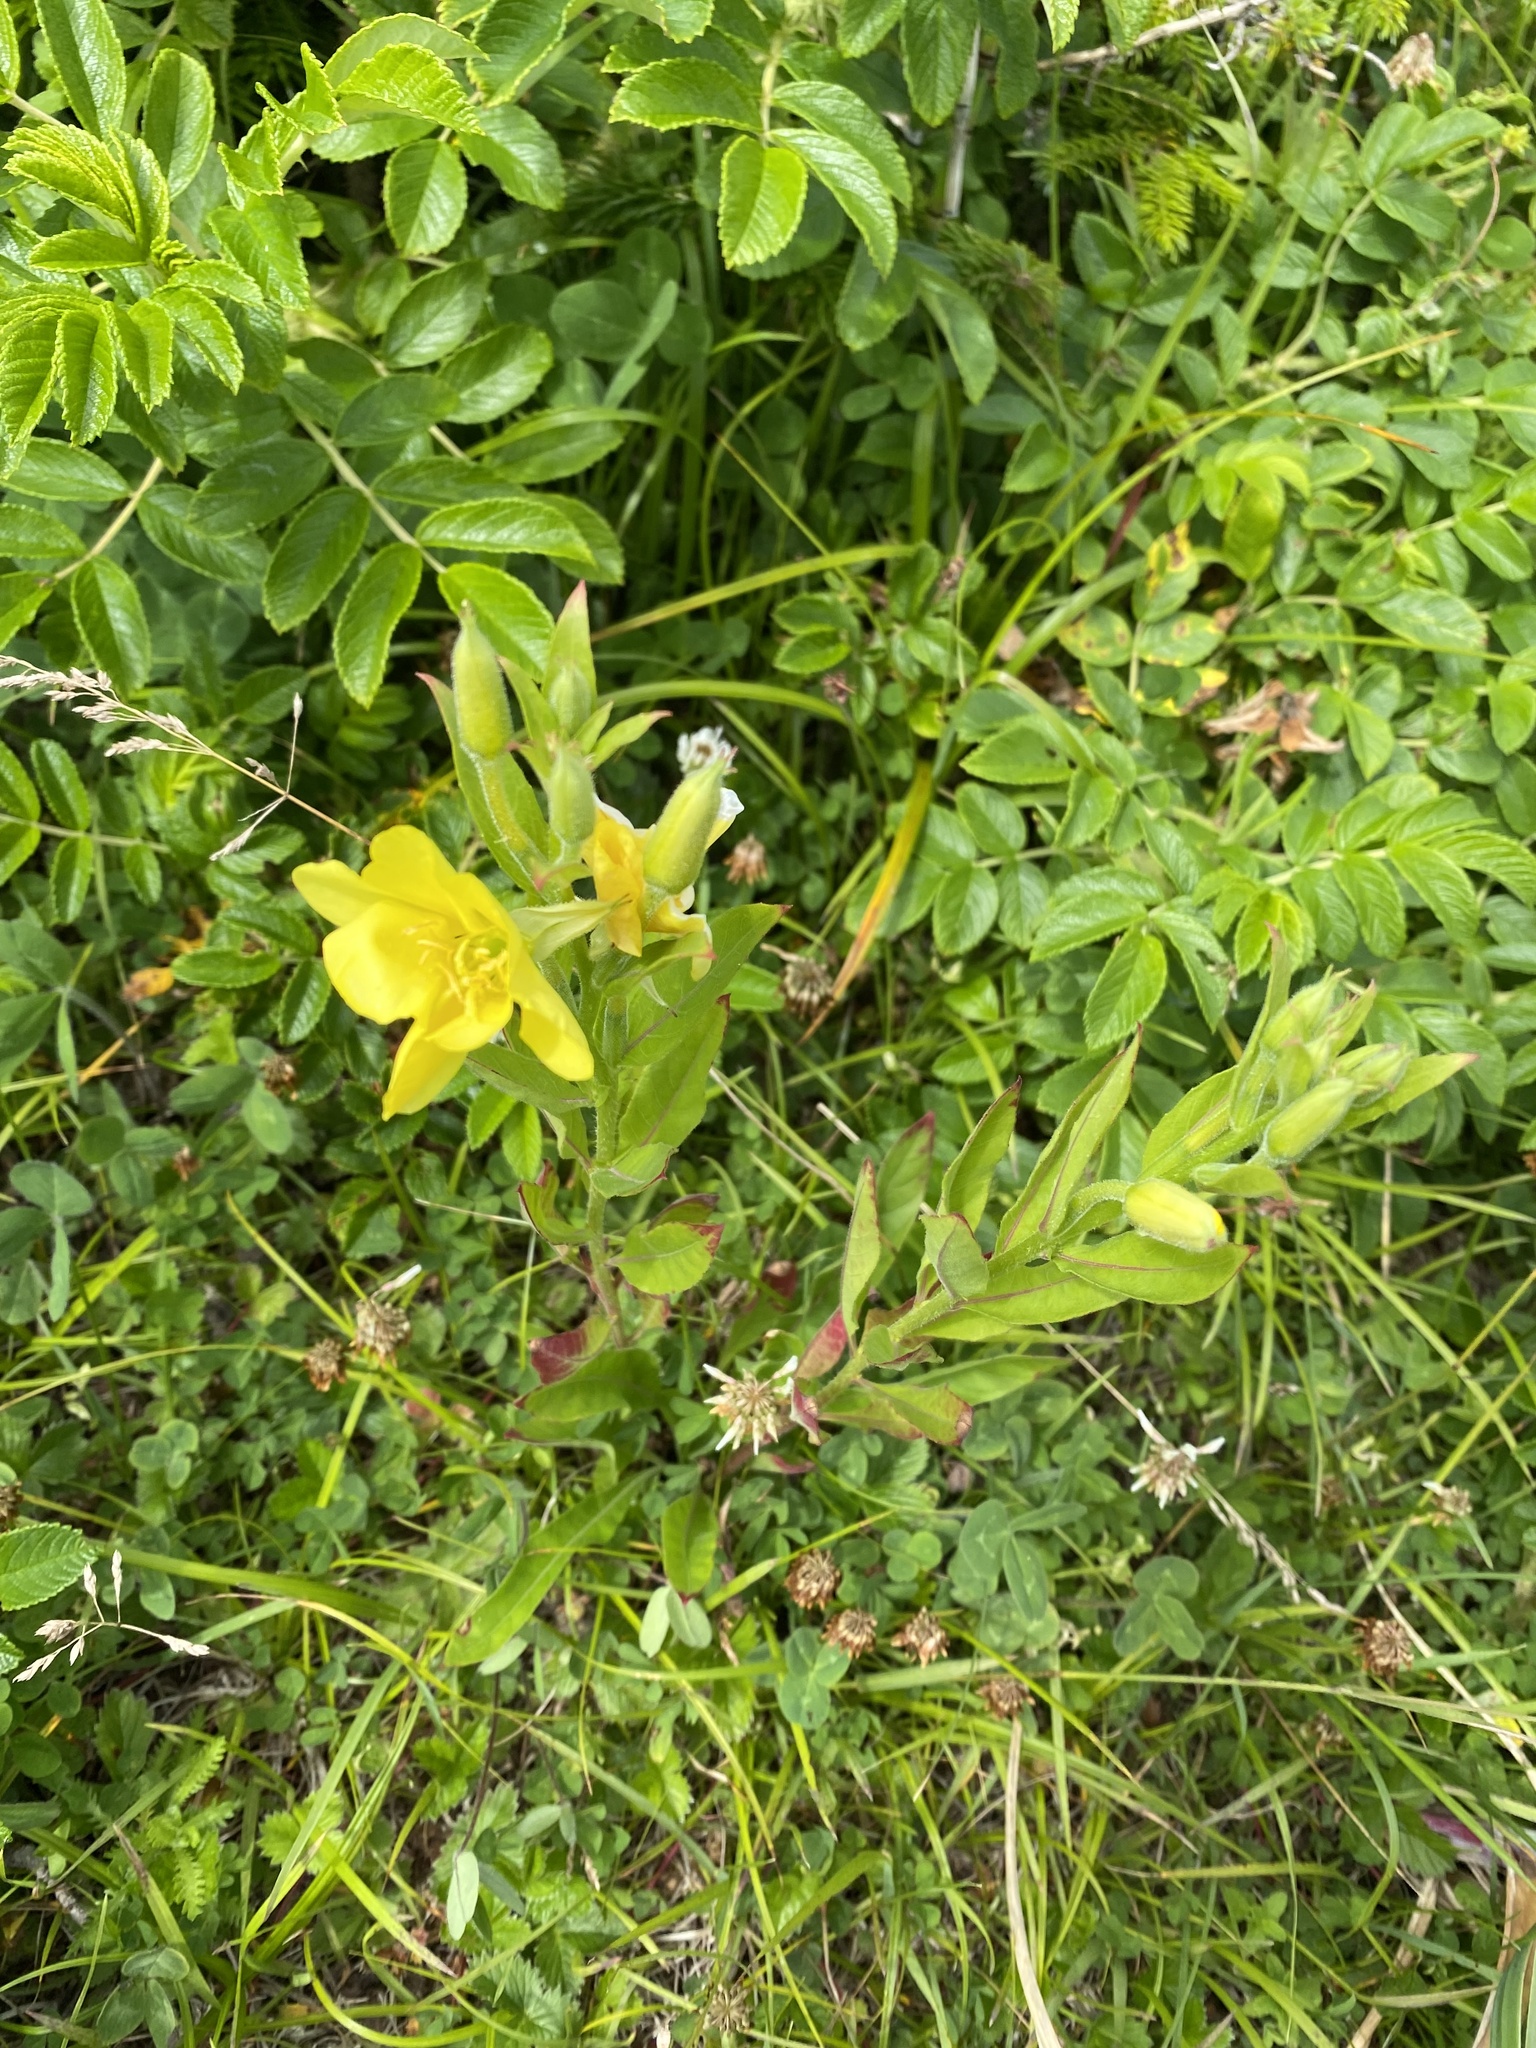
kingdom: Plantae
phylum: Tracheophyta
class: Magnoliopsida
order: Myrtales
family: Onagraceae
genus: Oenothera
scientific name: Oenothera biennis
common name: Common evening-primrose
